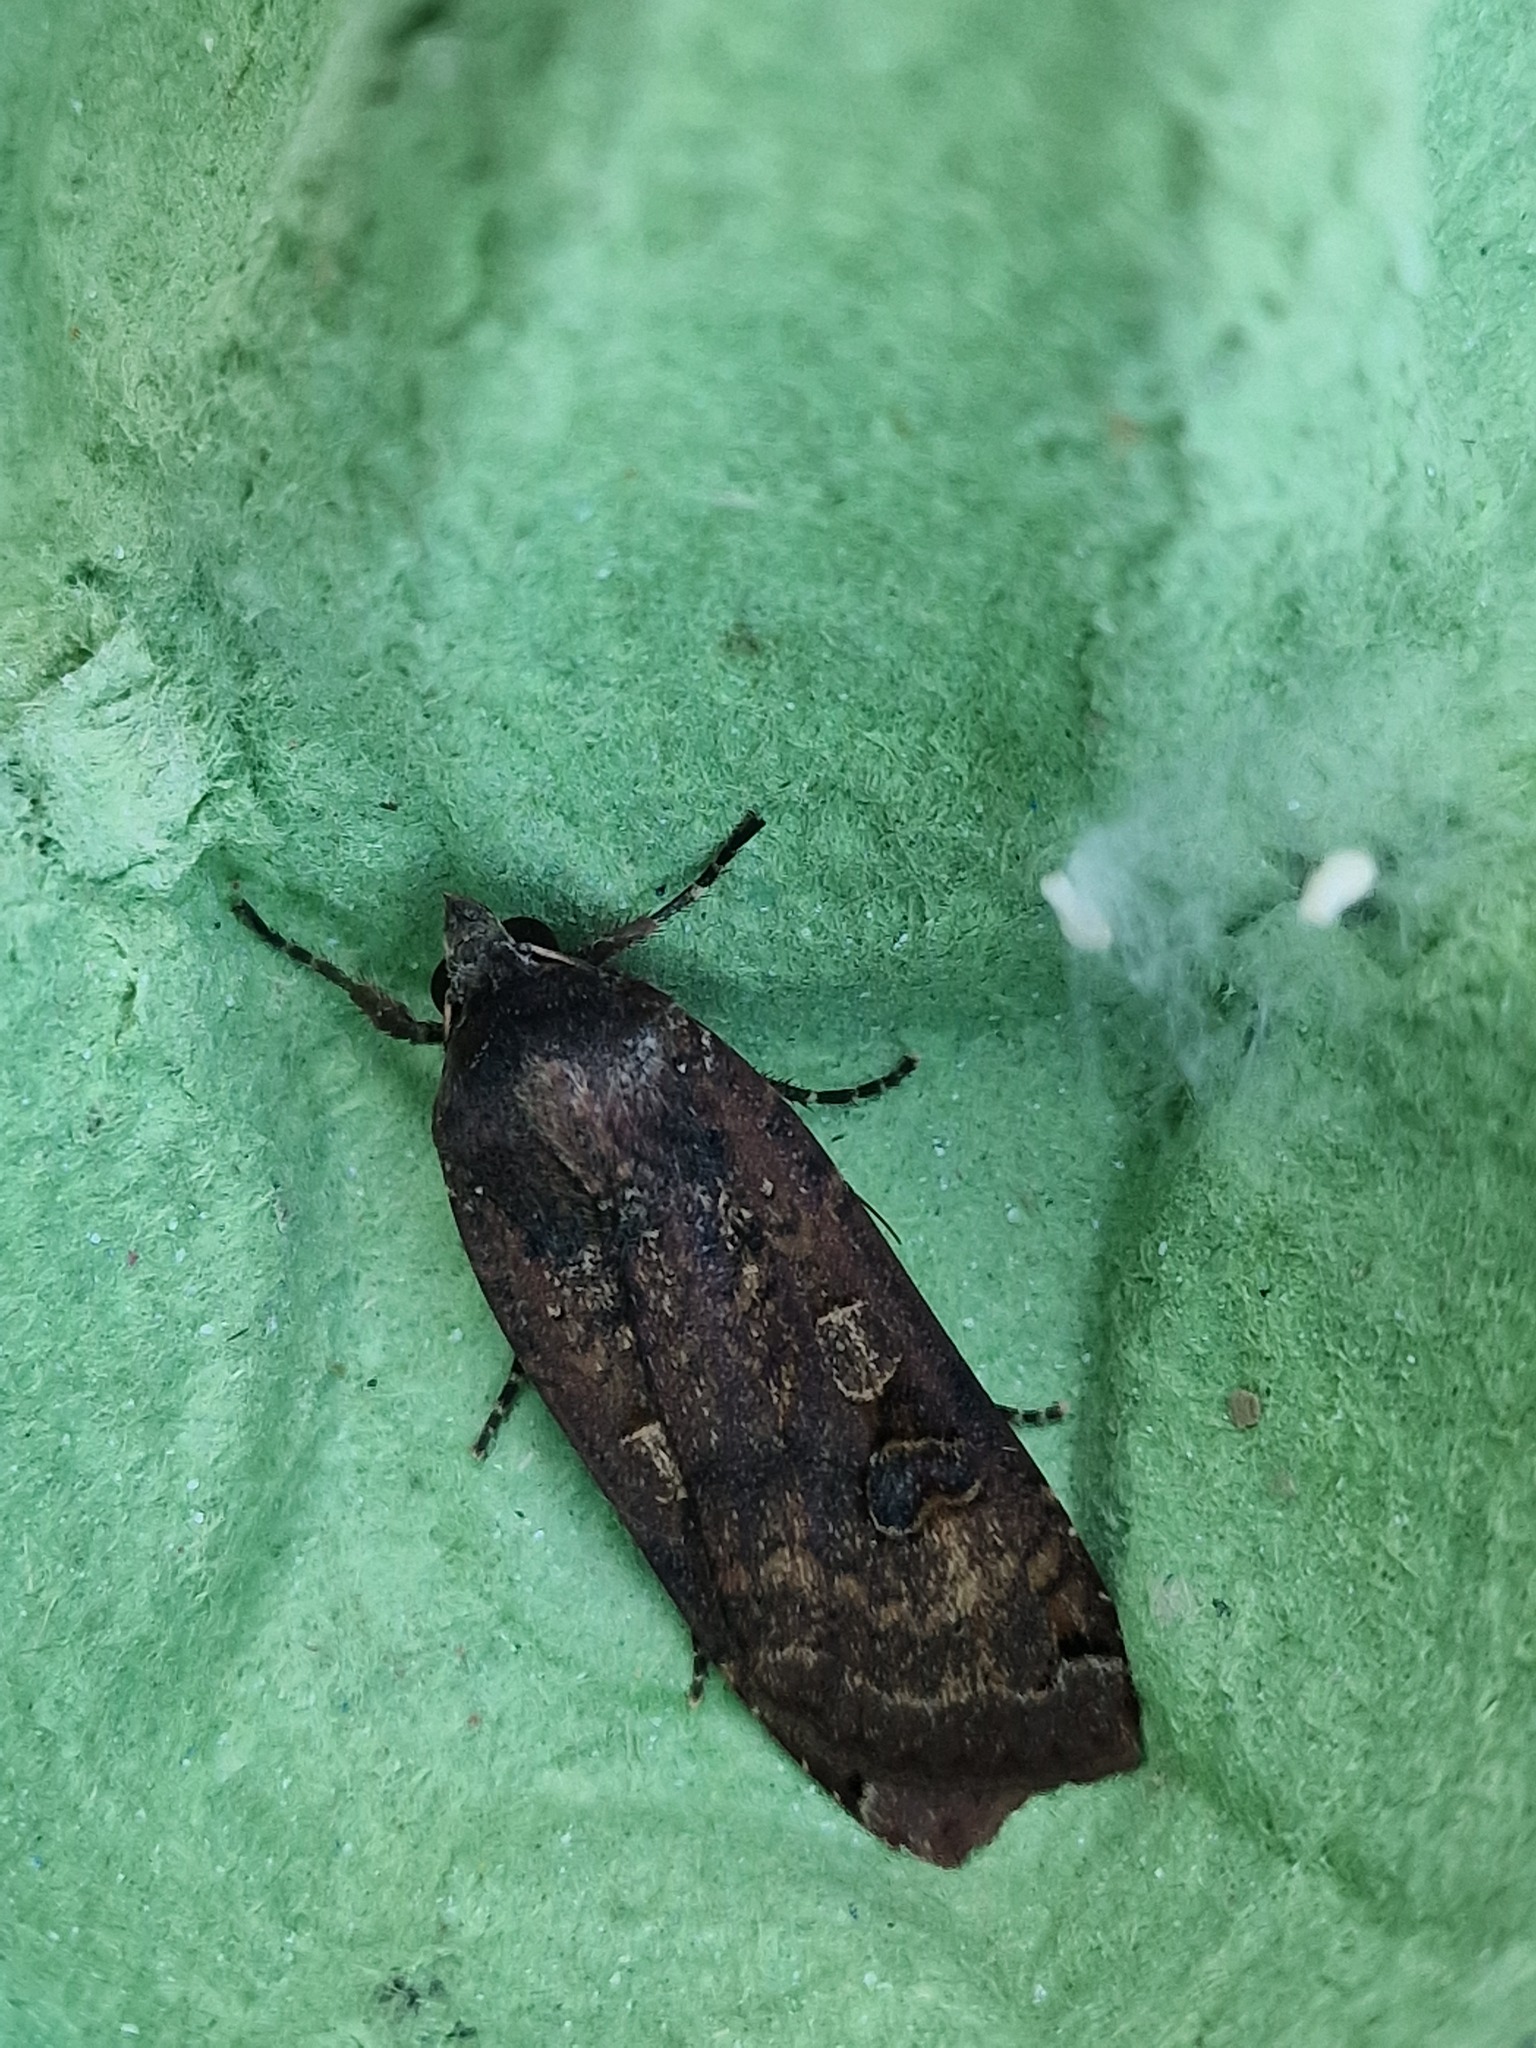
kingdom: Animalia
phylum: Arthropoda
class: Insecta
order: Lepidoptera
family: Noctuidae
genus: Noctua
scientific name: Noctua pronuba
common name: Large yellow underwing
